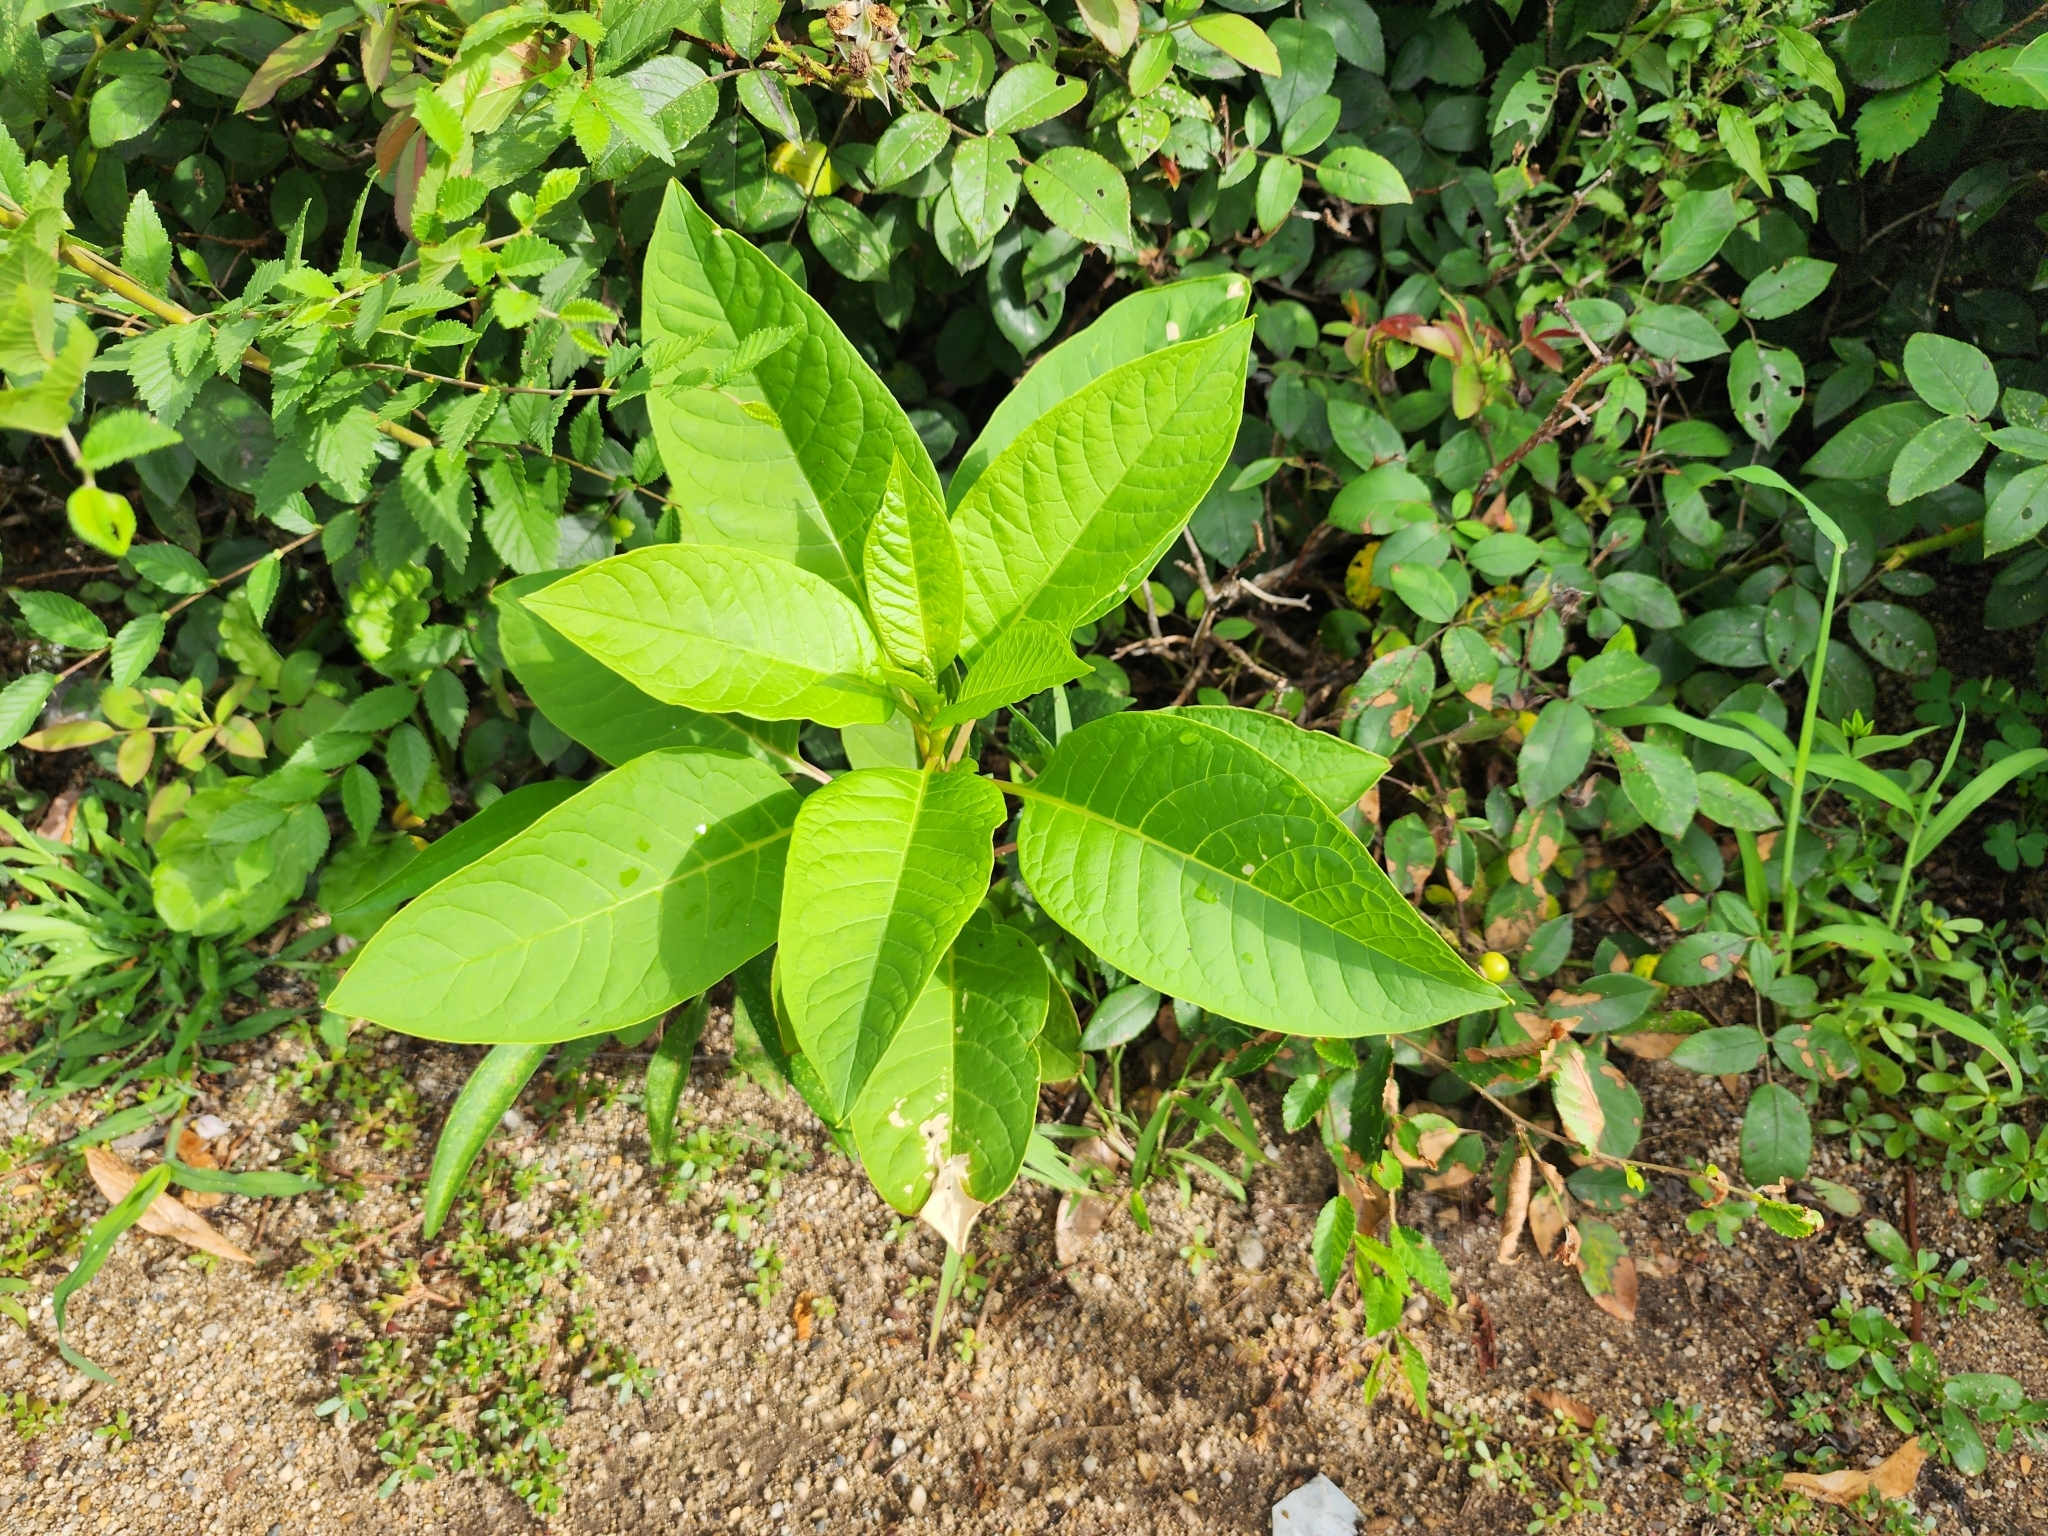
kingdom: Plantae
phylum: Tracheophyta
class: Magnoliopsida
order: Caryophyllales
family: Phytolaccaceae
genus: Phytolacca
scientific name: Phytolacca americana
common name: American pokeweed
